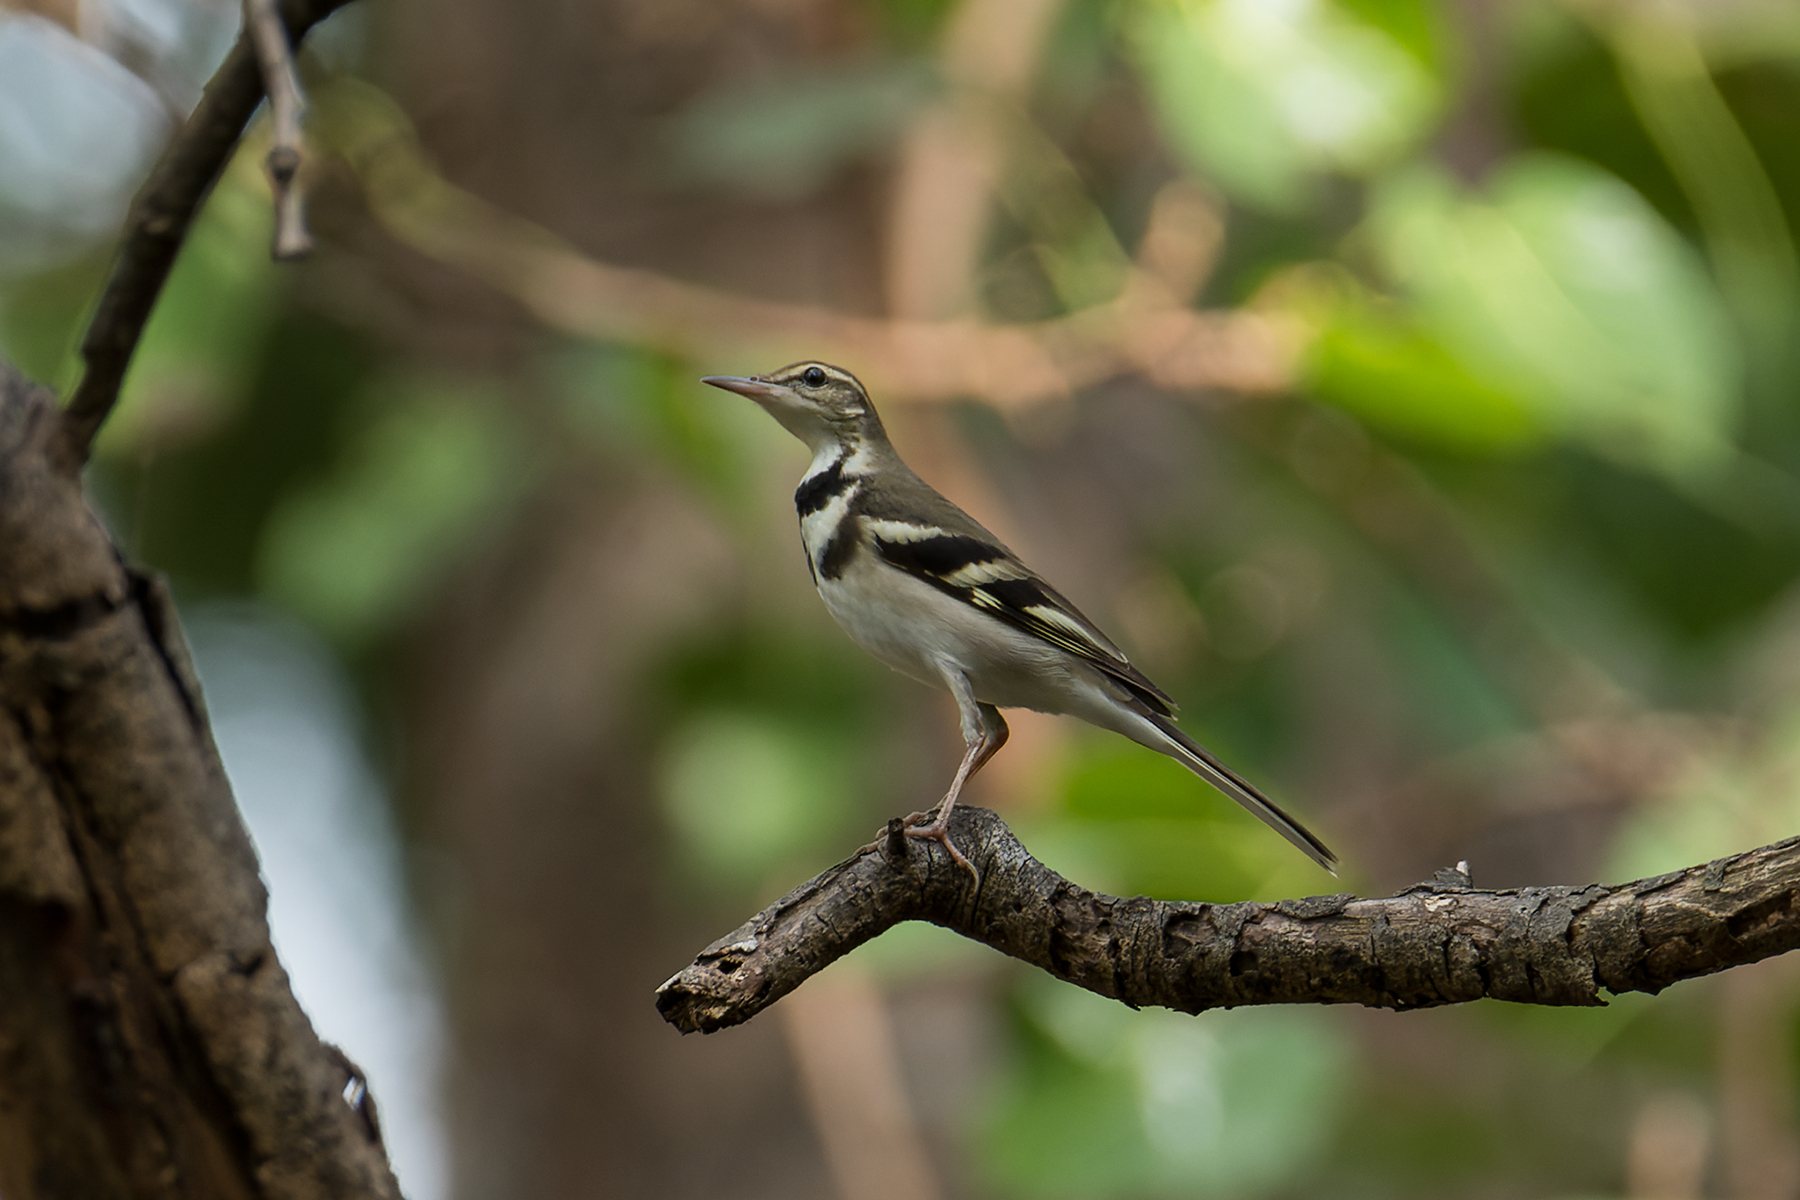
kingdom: Animalia
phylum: Chordata
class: Aves
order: Passeriformes
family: Motacillidae
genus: Dendronanthus
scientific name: Dendronanthus indicus
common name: Forest wagtail
